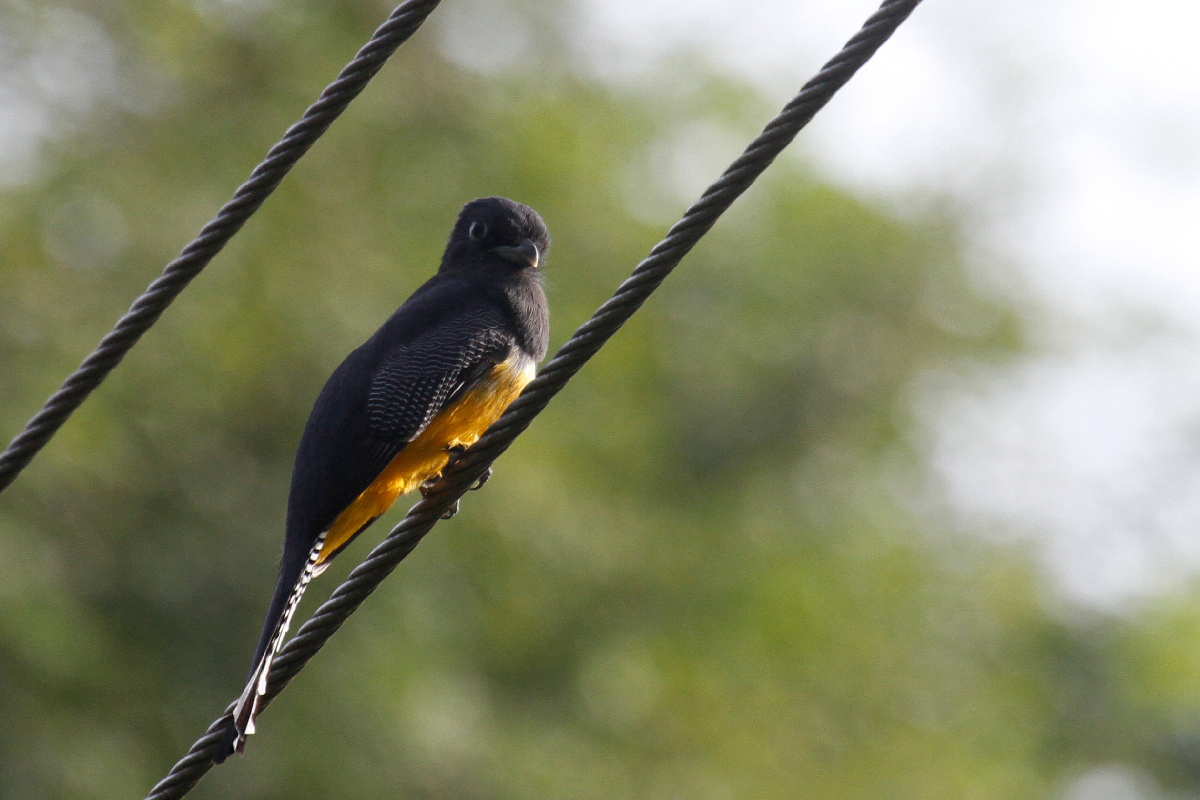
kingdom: Animalia
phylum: Chordata
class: Aves
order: Trogoniformes
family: Trogonidae
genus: Trogon
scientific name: Trogon caligatus
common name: Gartered trogon
